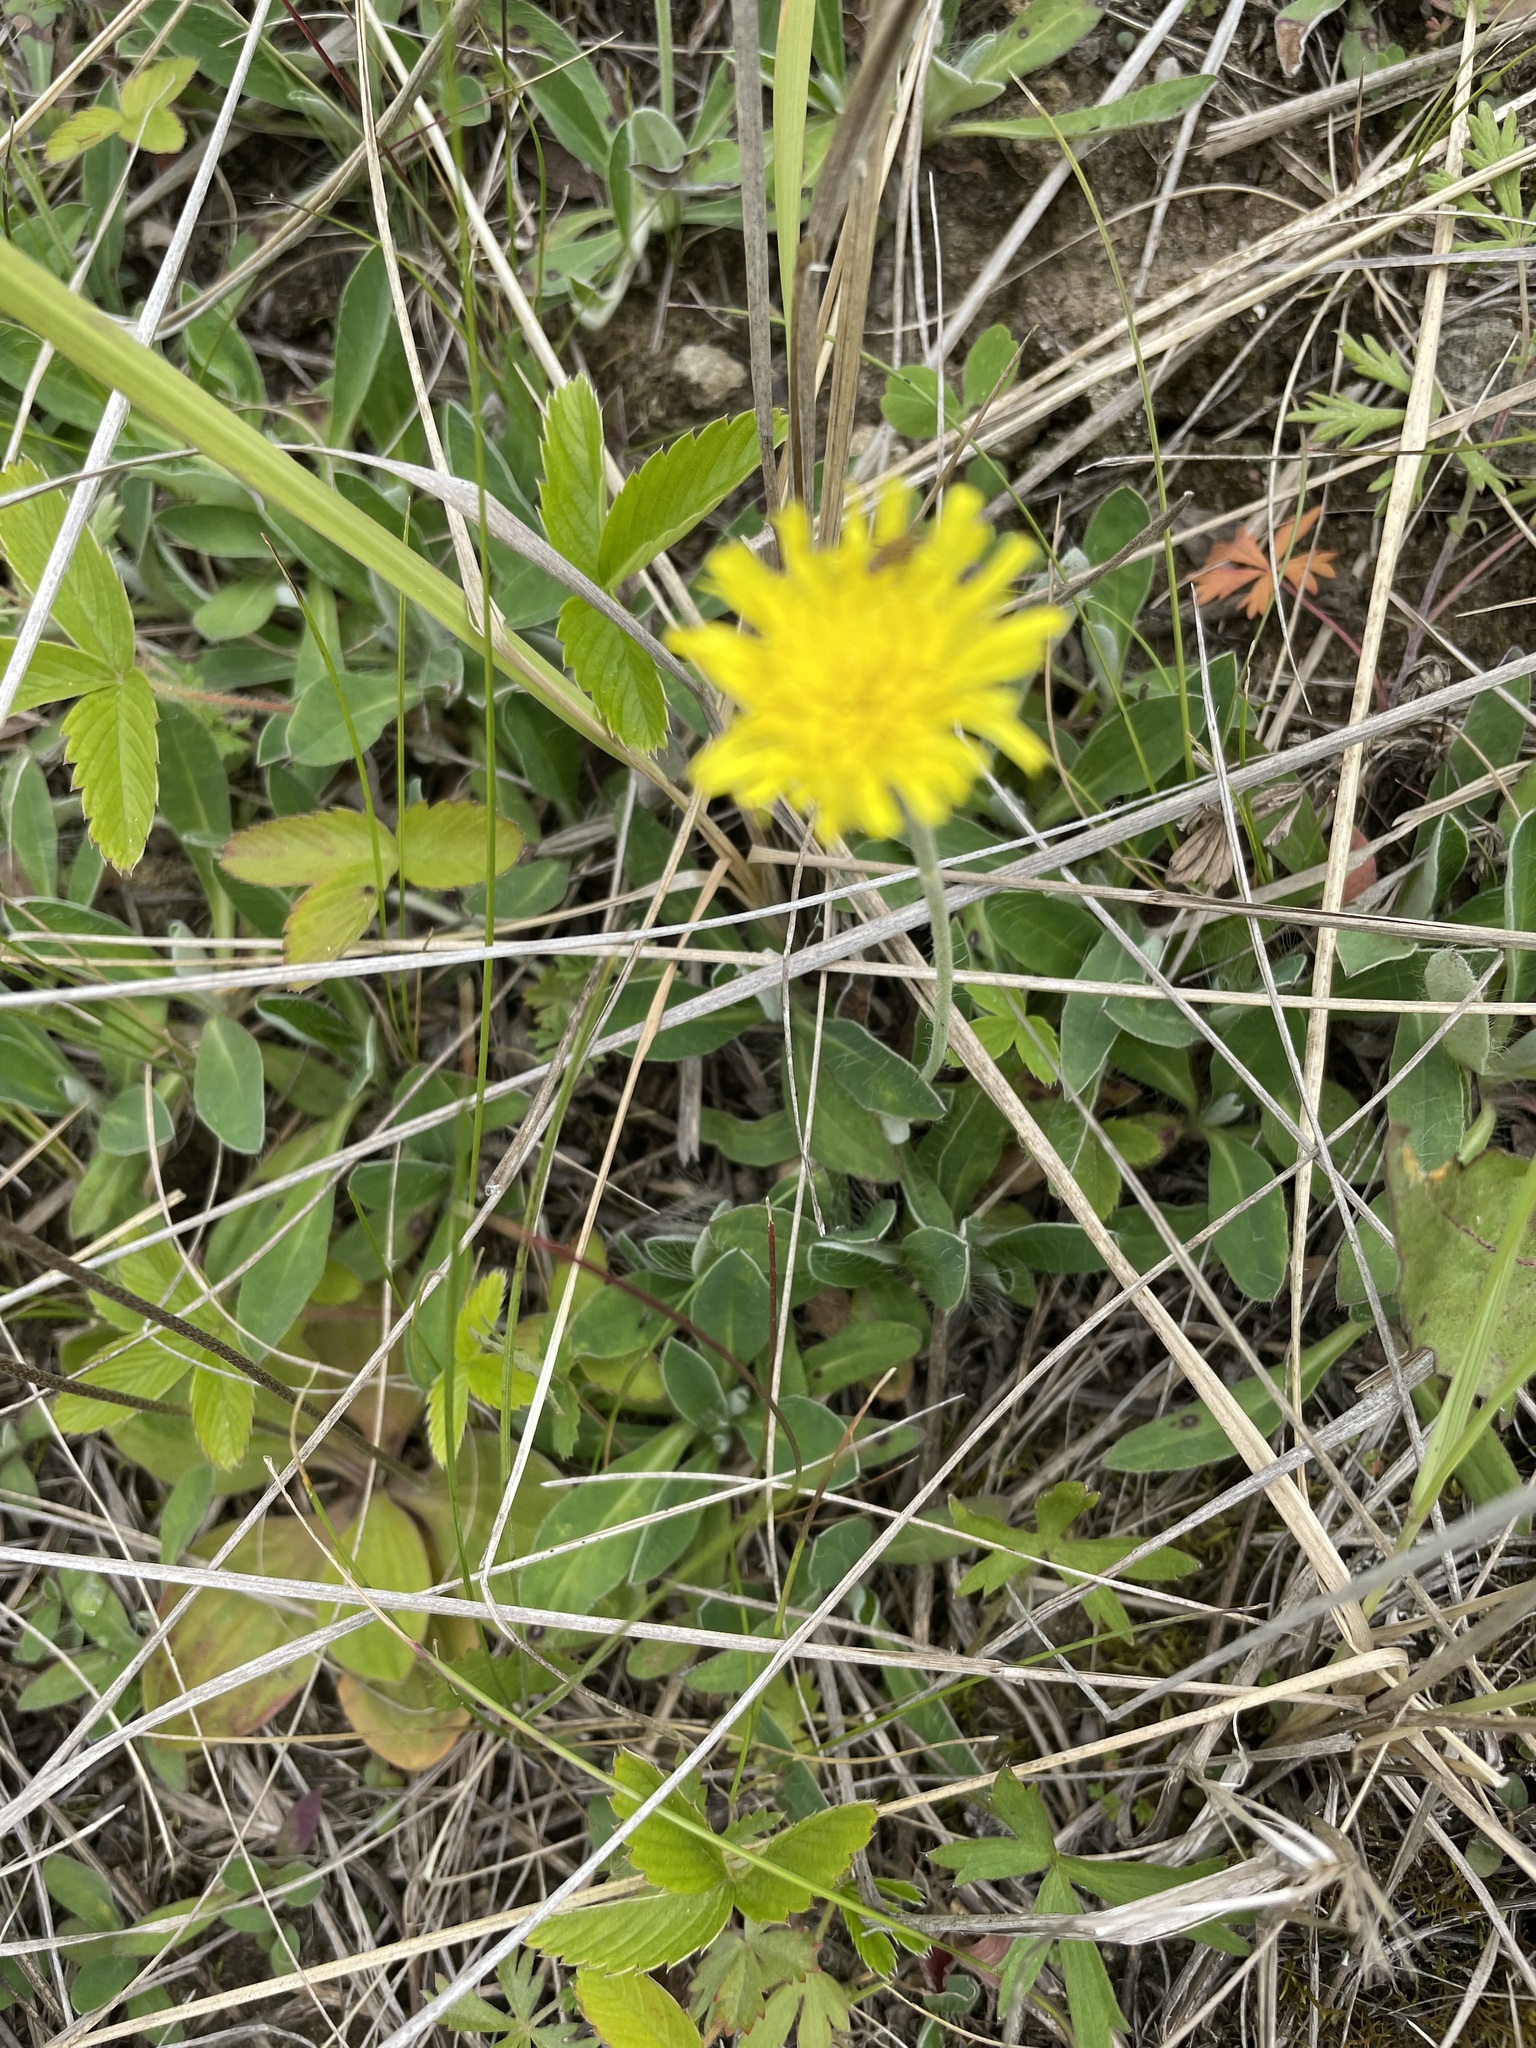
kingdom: Plantae
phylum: Tracheophyta
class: Magnoliopsida
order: Asterales
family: Asteraceae
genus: Pilosella
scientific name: Pilosella officinarum
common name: Mouse-ear hawkweed
